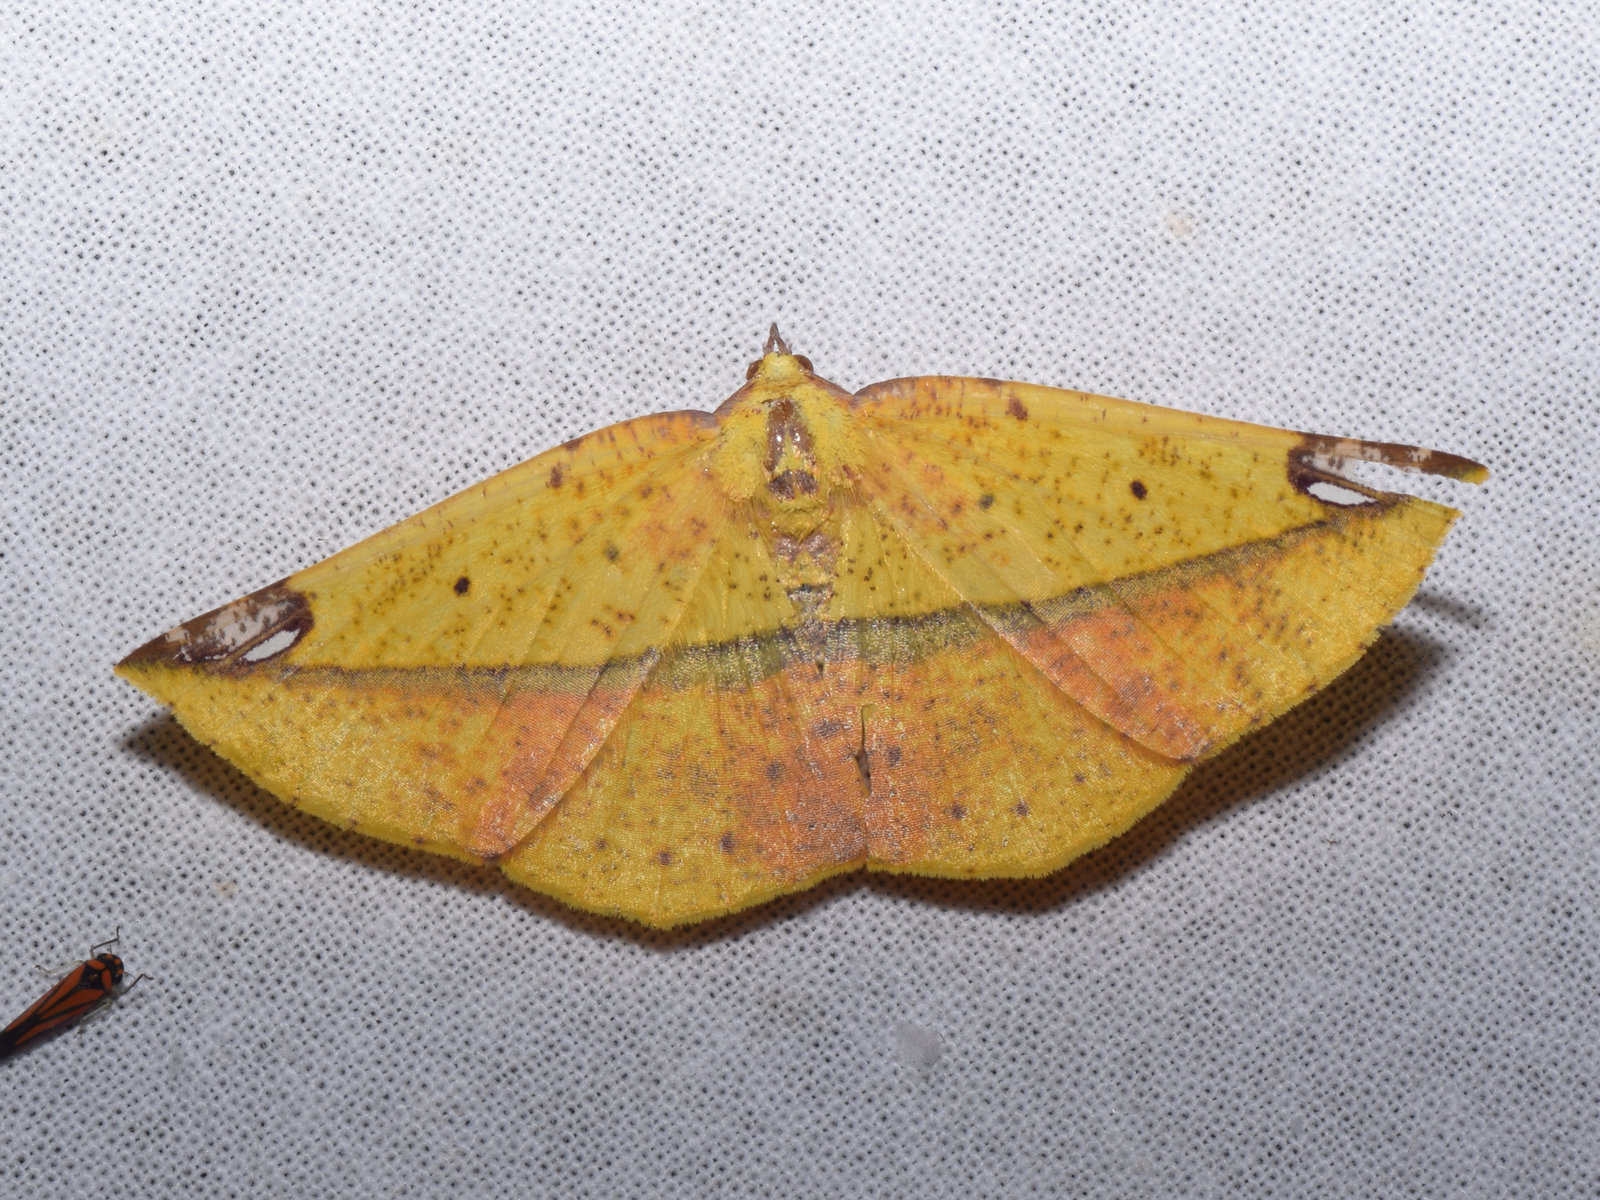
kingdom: Animalia
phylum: Arthropoda
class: Insecta
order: Lepidoptera
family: Geometridae
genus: Mimomiza
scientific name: Mimomiza cruentaria
